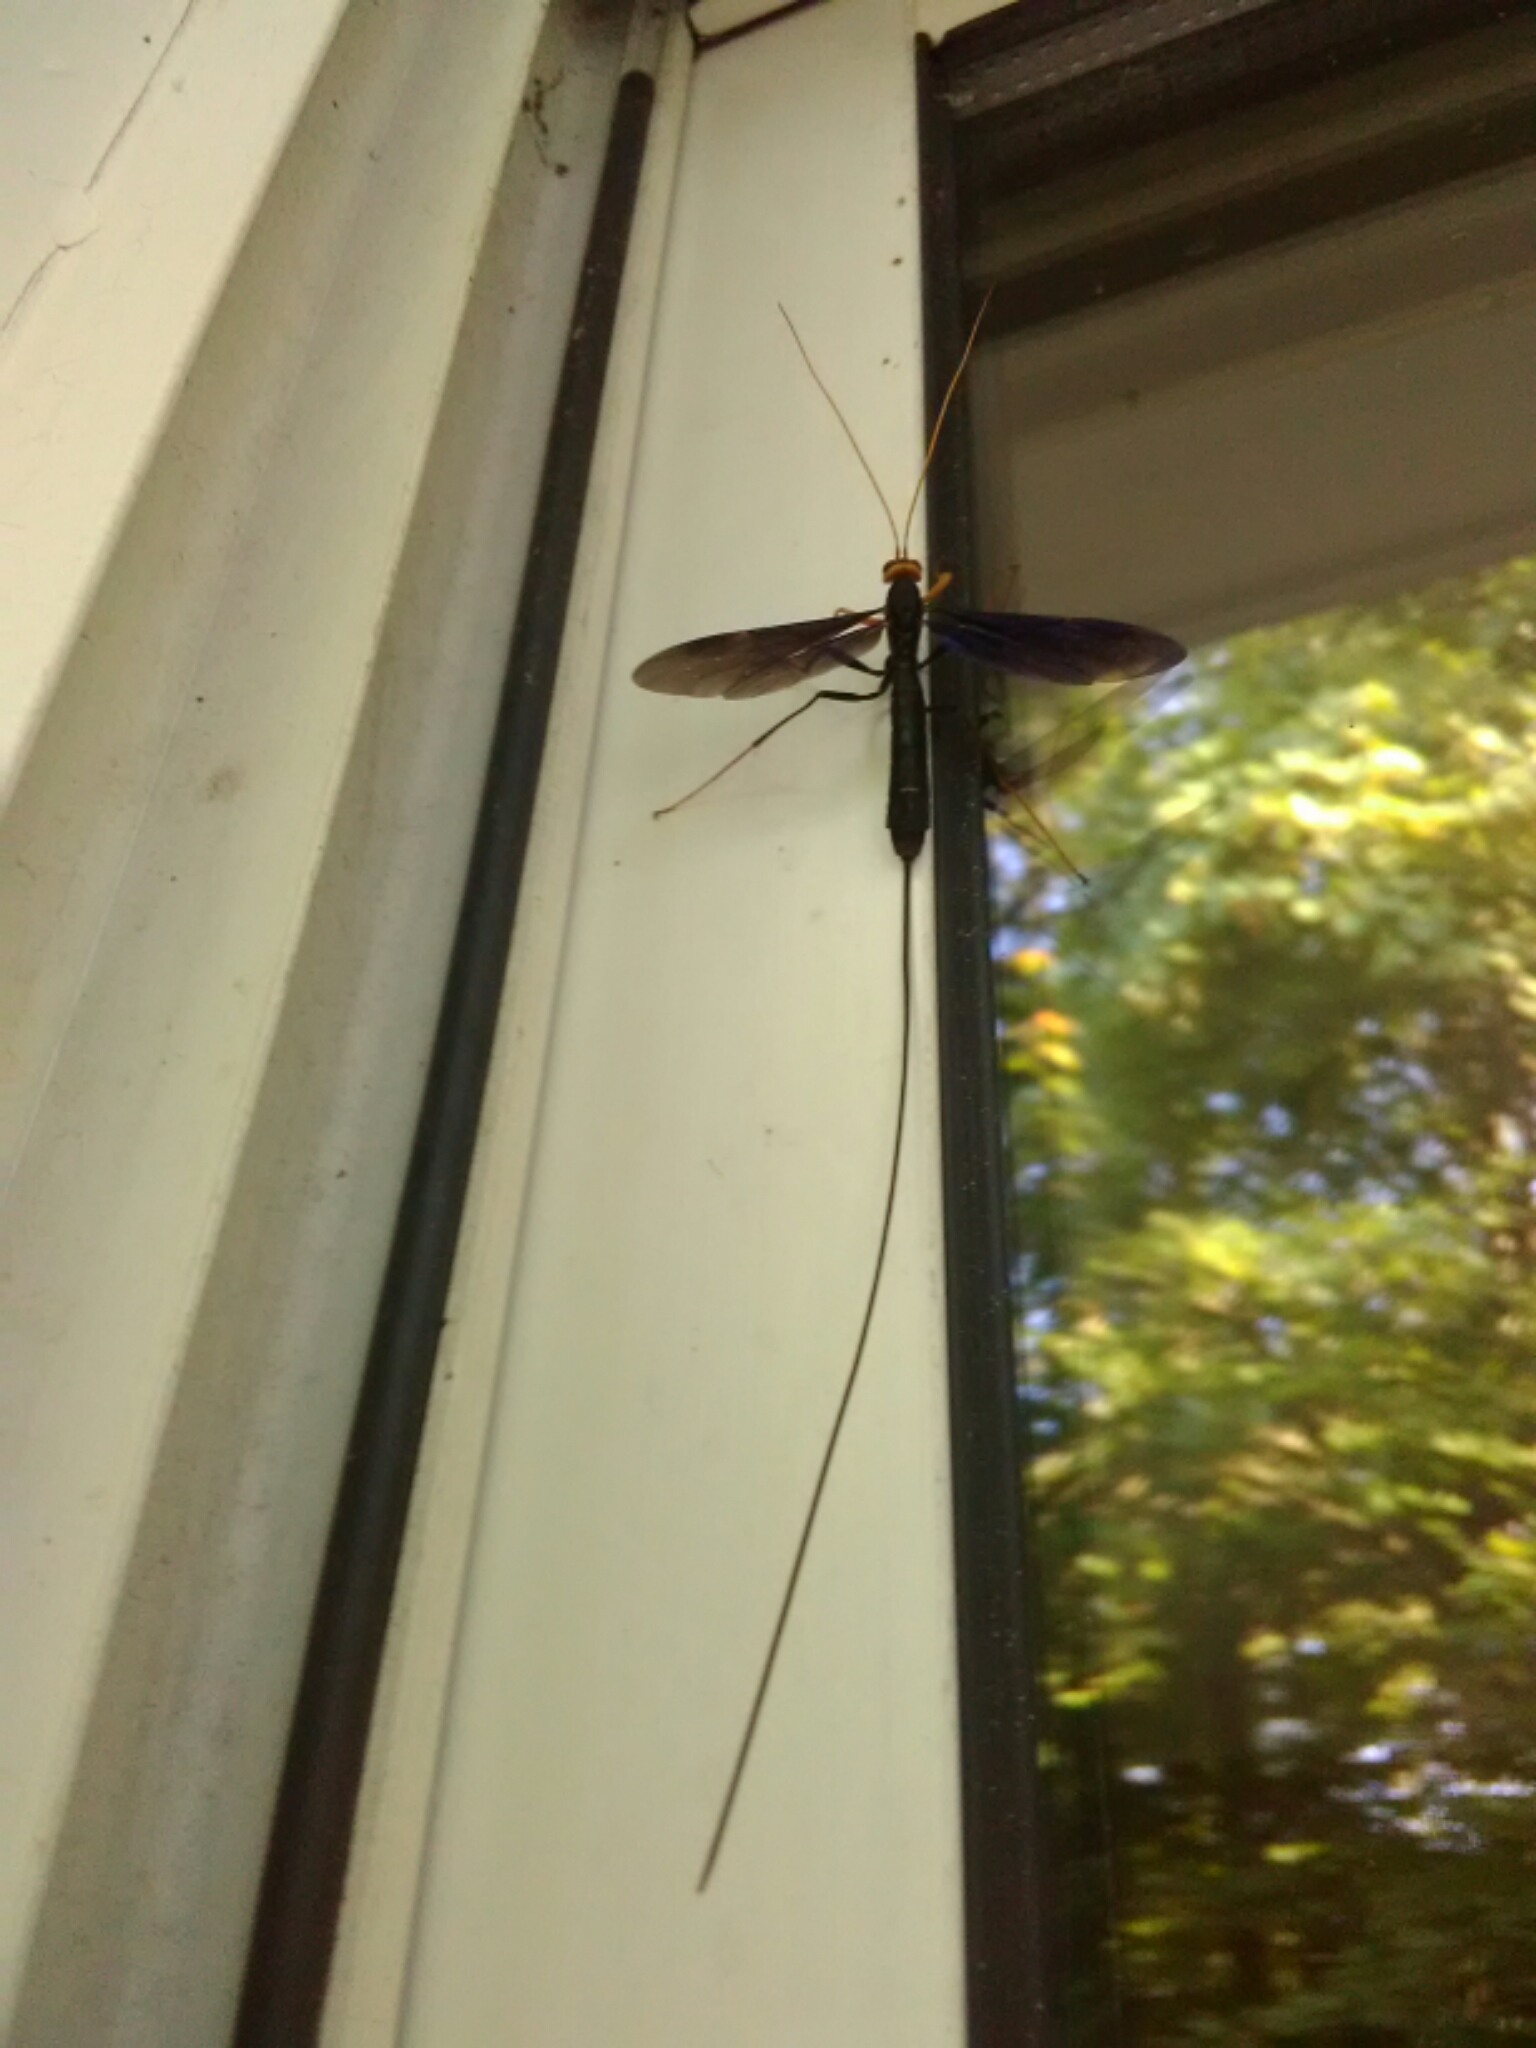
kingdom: Animalia
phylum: Arthropoda
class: Insecta
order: Hymenoptera
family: Ichneumonidae
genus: Megarhyssa
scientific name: Megarhyssa atrata
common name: Black giant ichneumonid wasp
